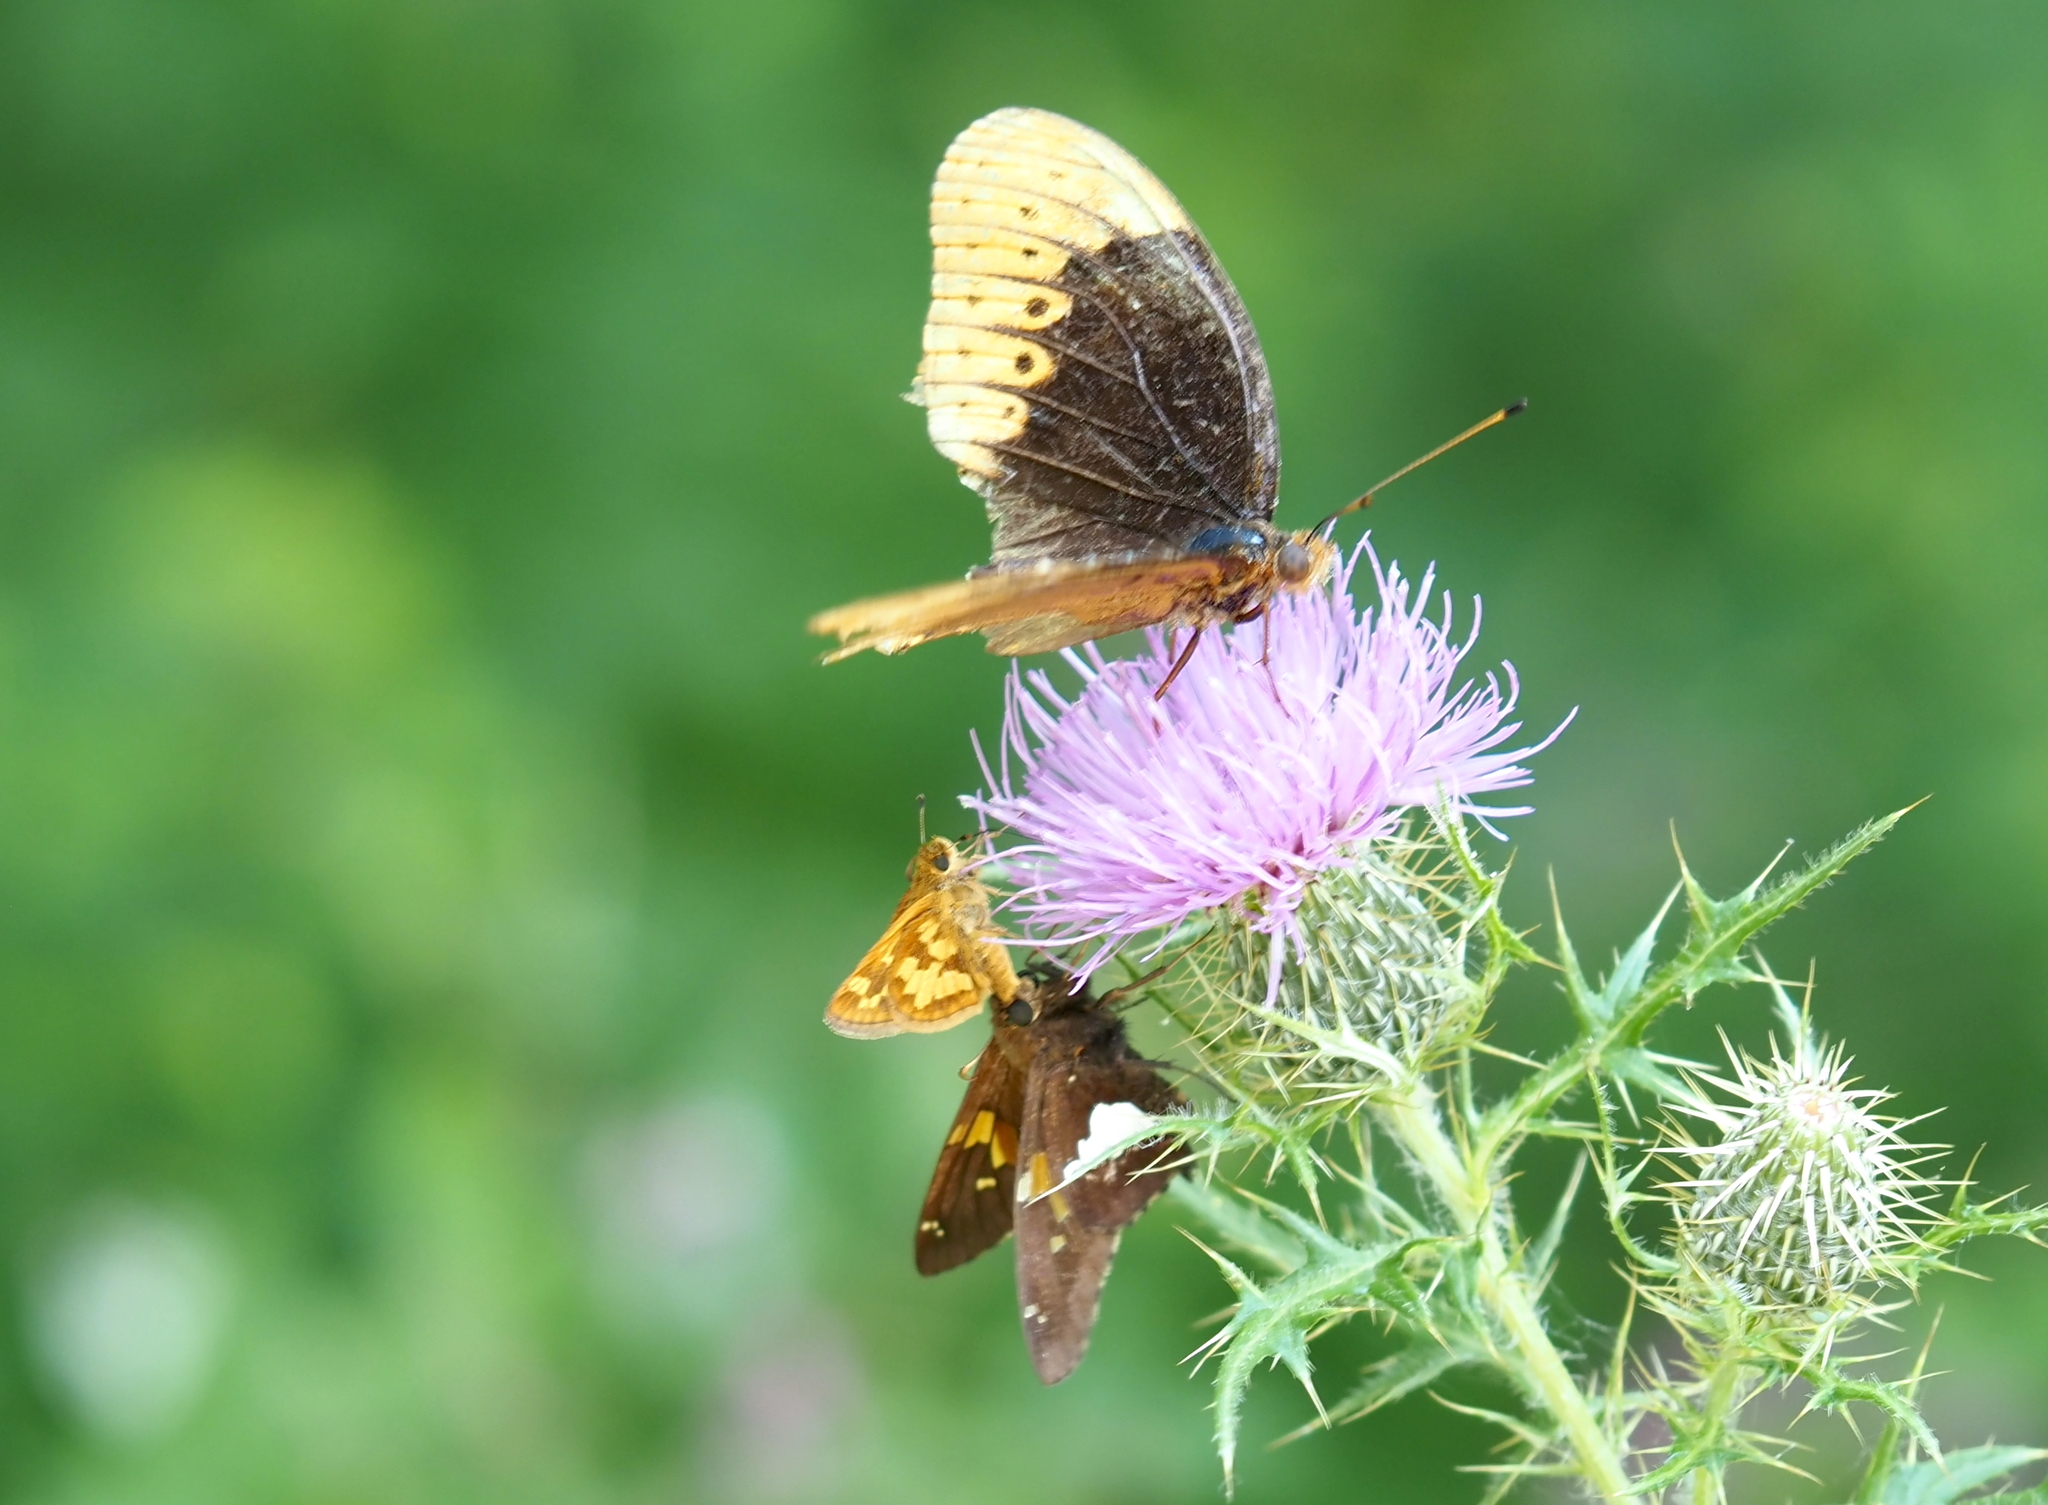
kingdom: Animalia
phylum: Arthropoda
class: Insecta
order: Lepidoptera
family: Nymphalidae
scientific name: Nymphalidae
